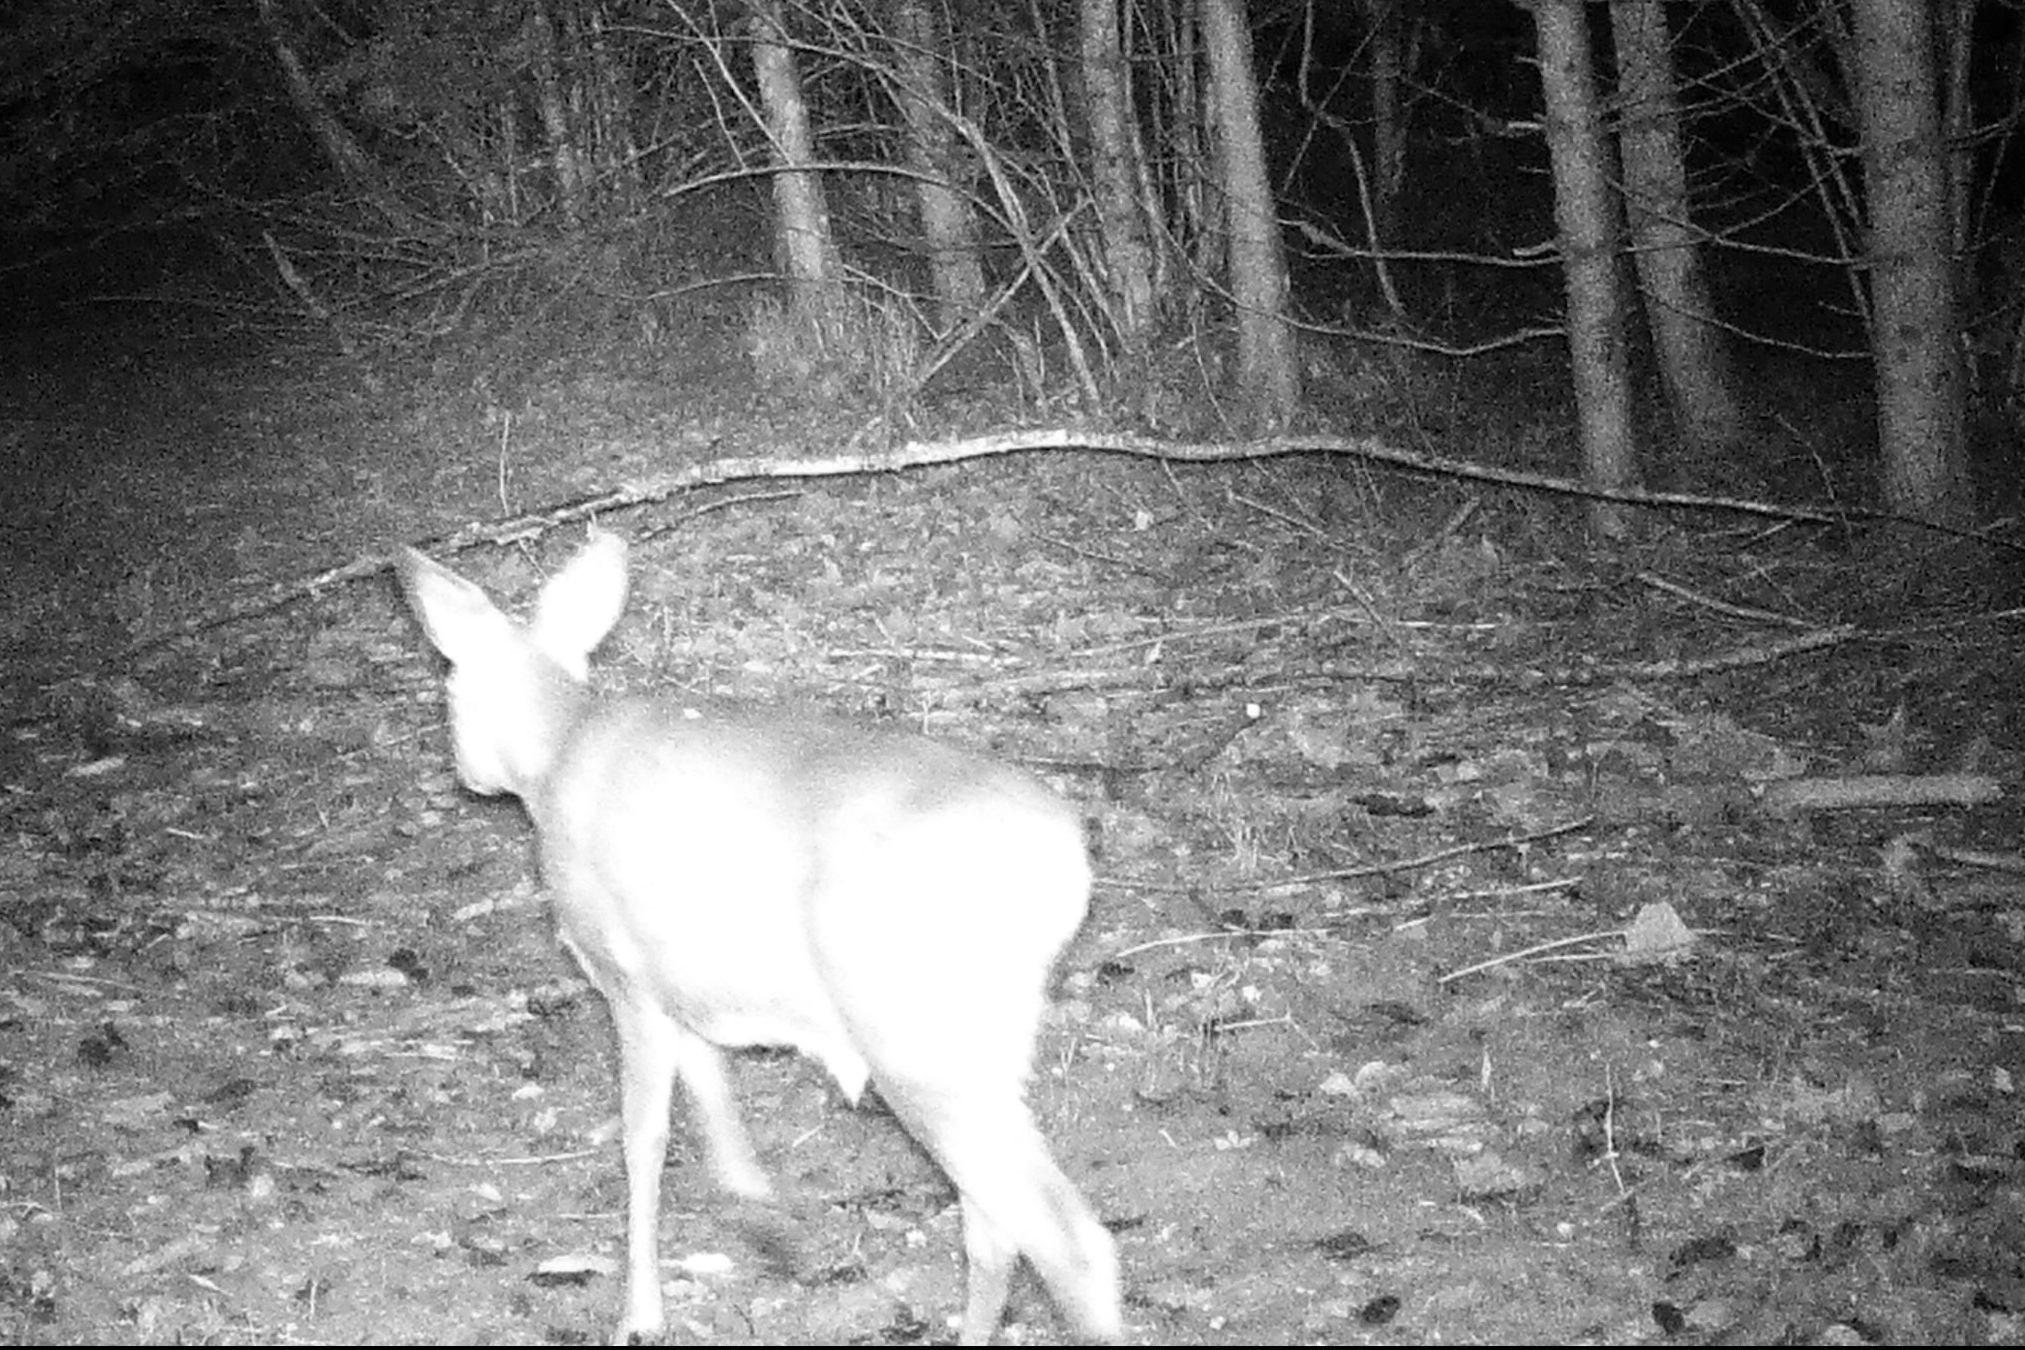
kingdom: Animalia
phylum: Chordata
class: Mammalia
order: Artiodactyla
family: Cervidae
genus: Capreolus
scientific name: Capreolus capreolus
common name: Western roe deer
